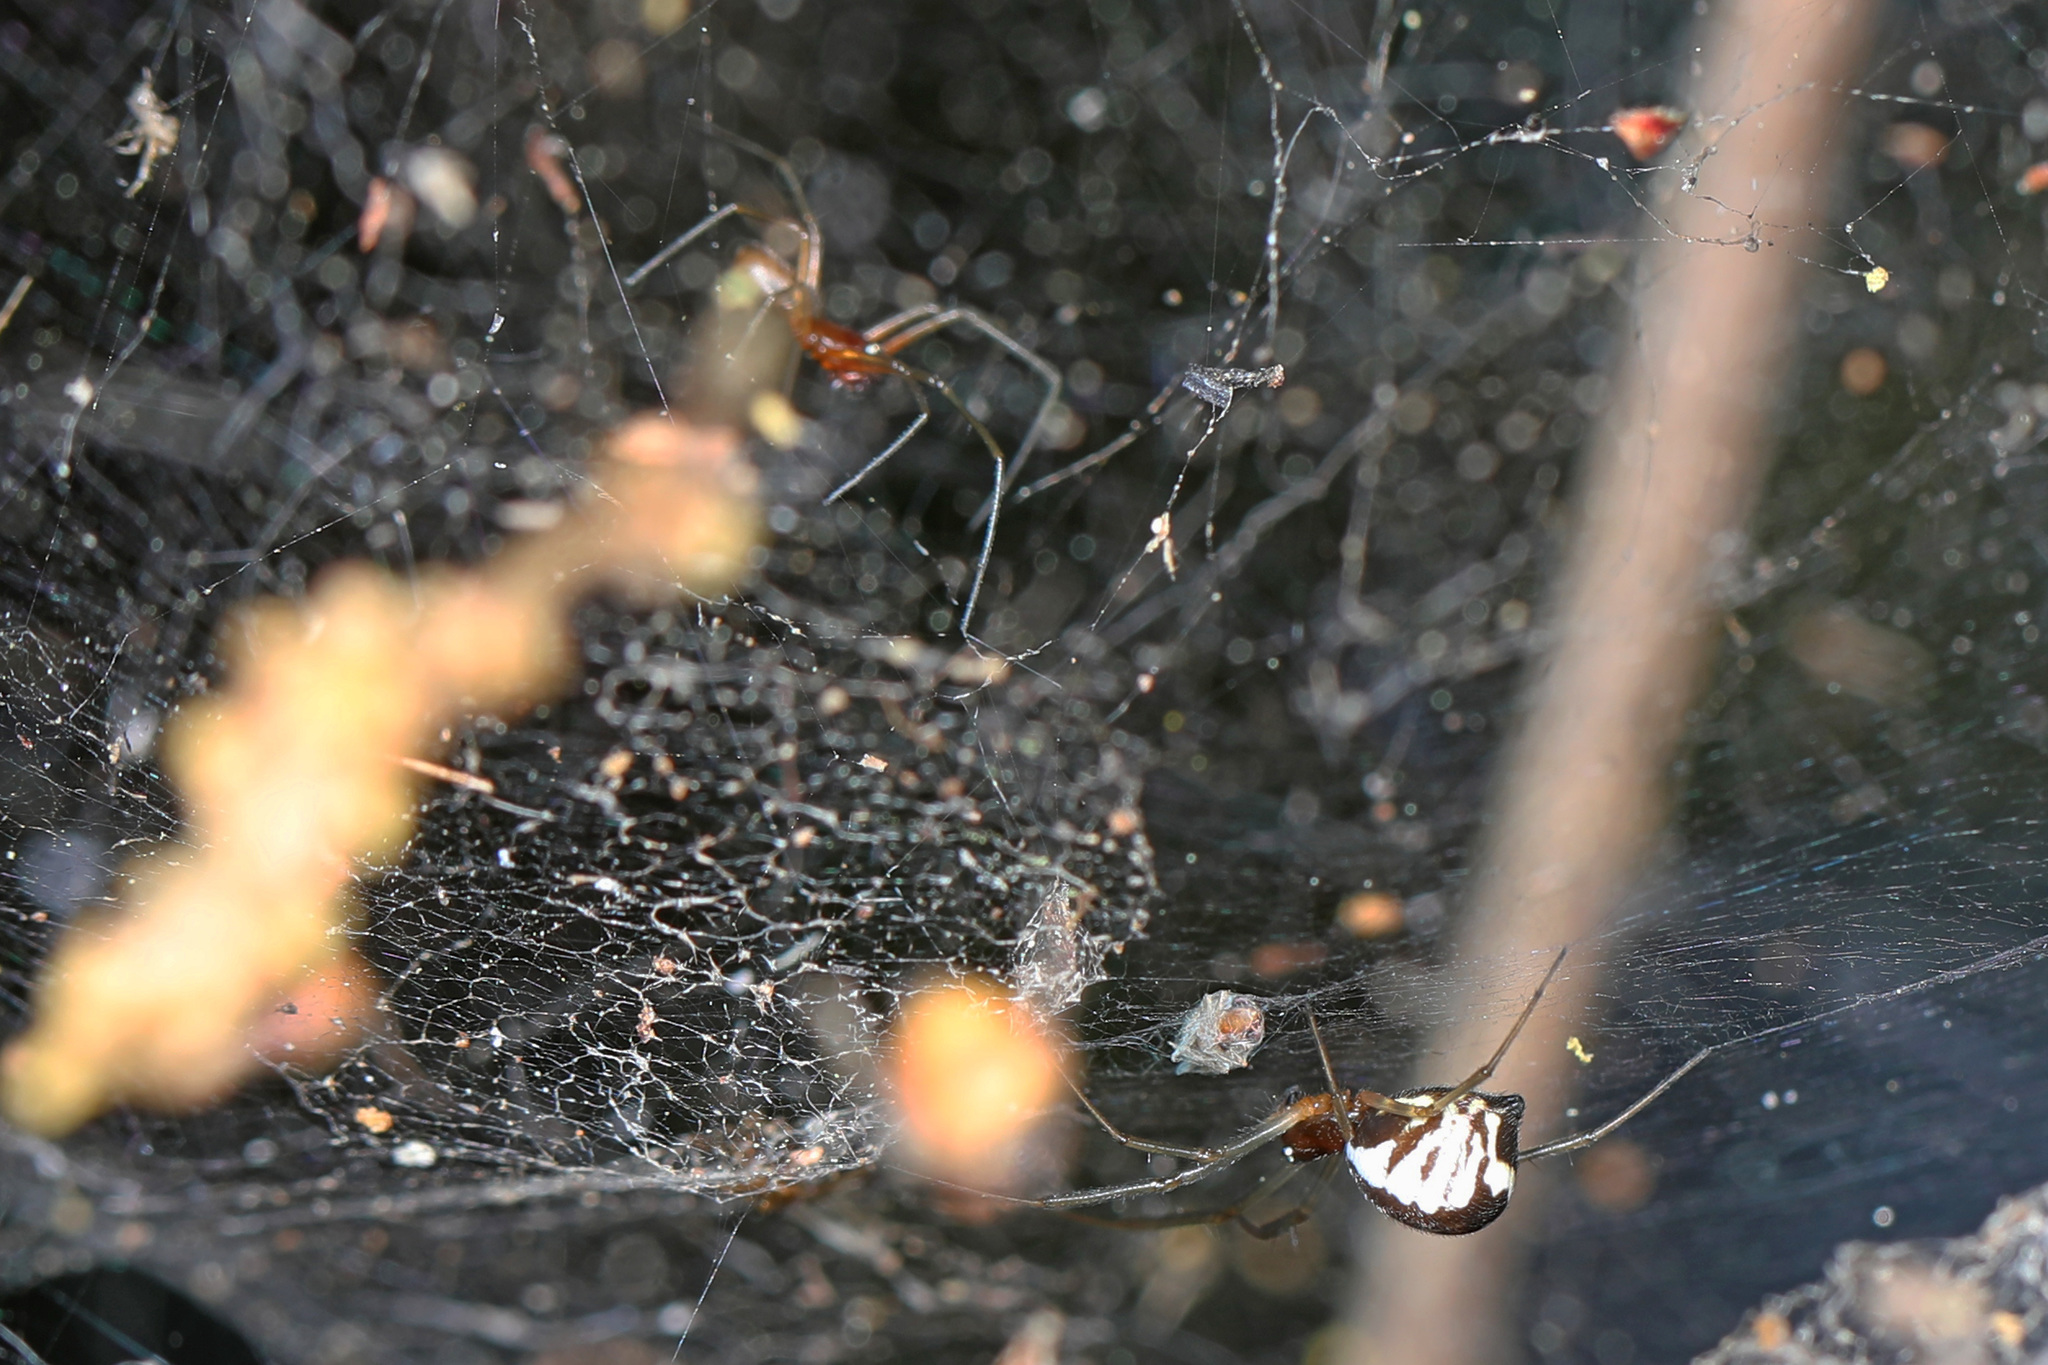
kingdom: Animalia
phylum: Arthropoda
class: Arachnida
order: Araneae
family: Linyphiidae
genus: Frontinella
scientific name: Frontinella pyramitela
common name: Bowl-and-doily spider
